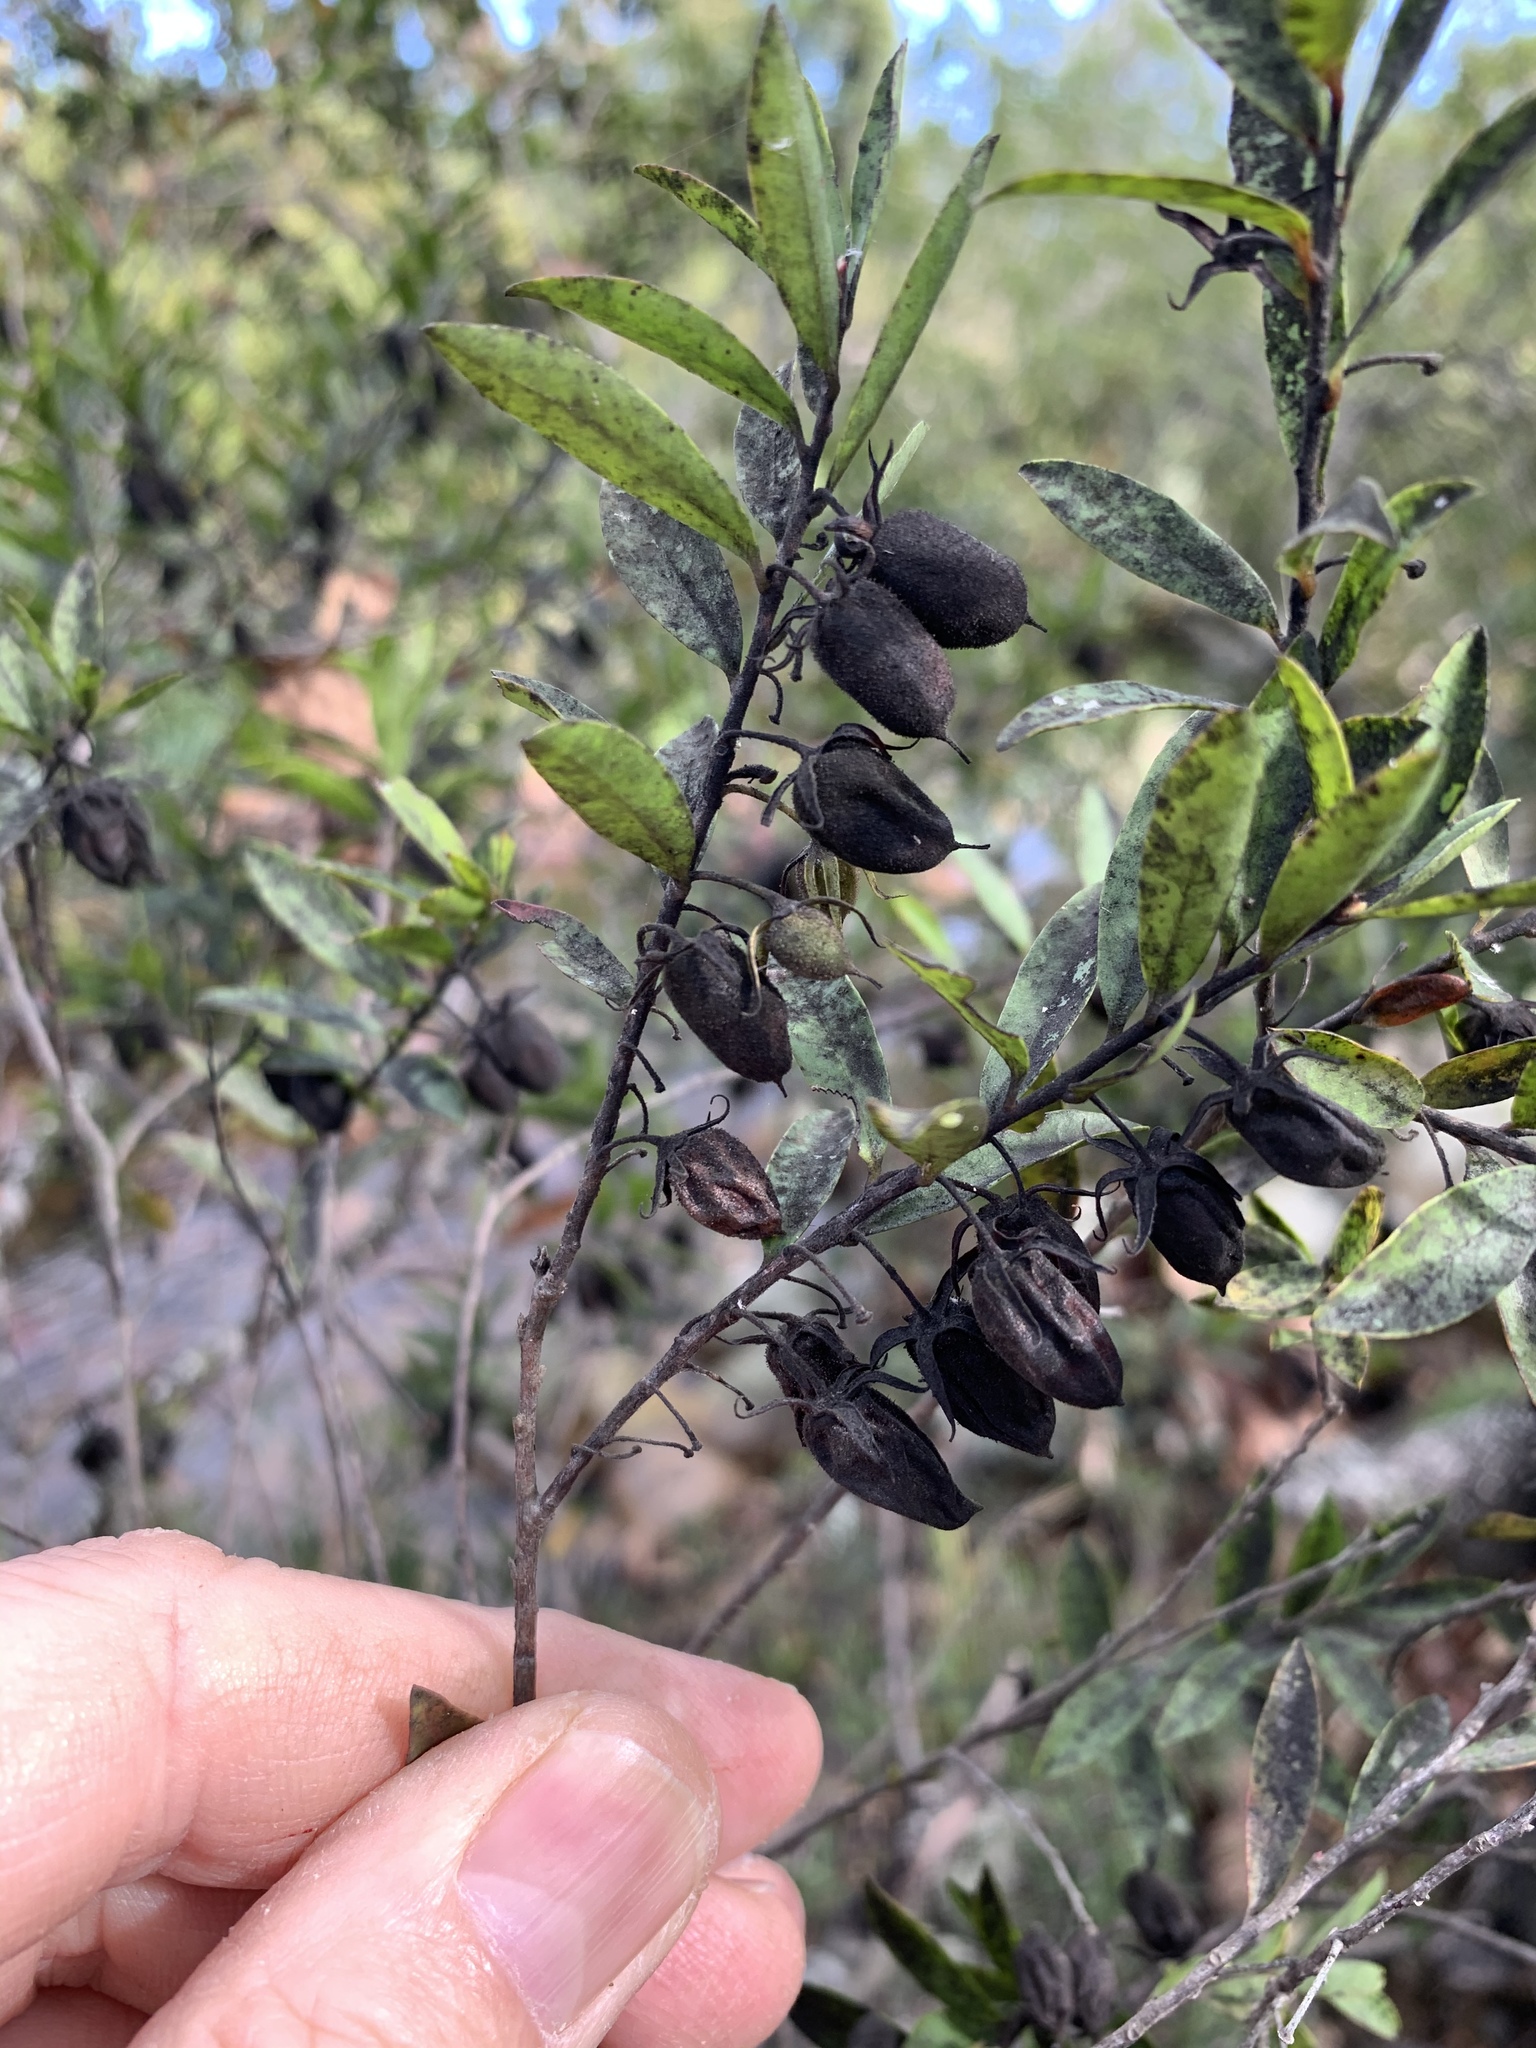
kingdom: Plantae
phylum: Tracheophyta
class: Magnoliopsida
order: Ericales
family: Ebenaceae
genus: Diospyros
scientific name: Diospyros glabra
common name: Fynbos star apple
